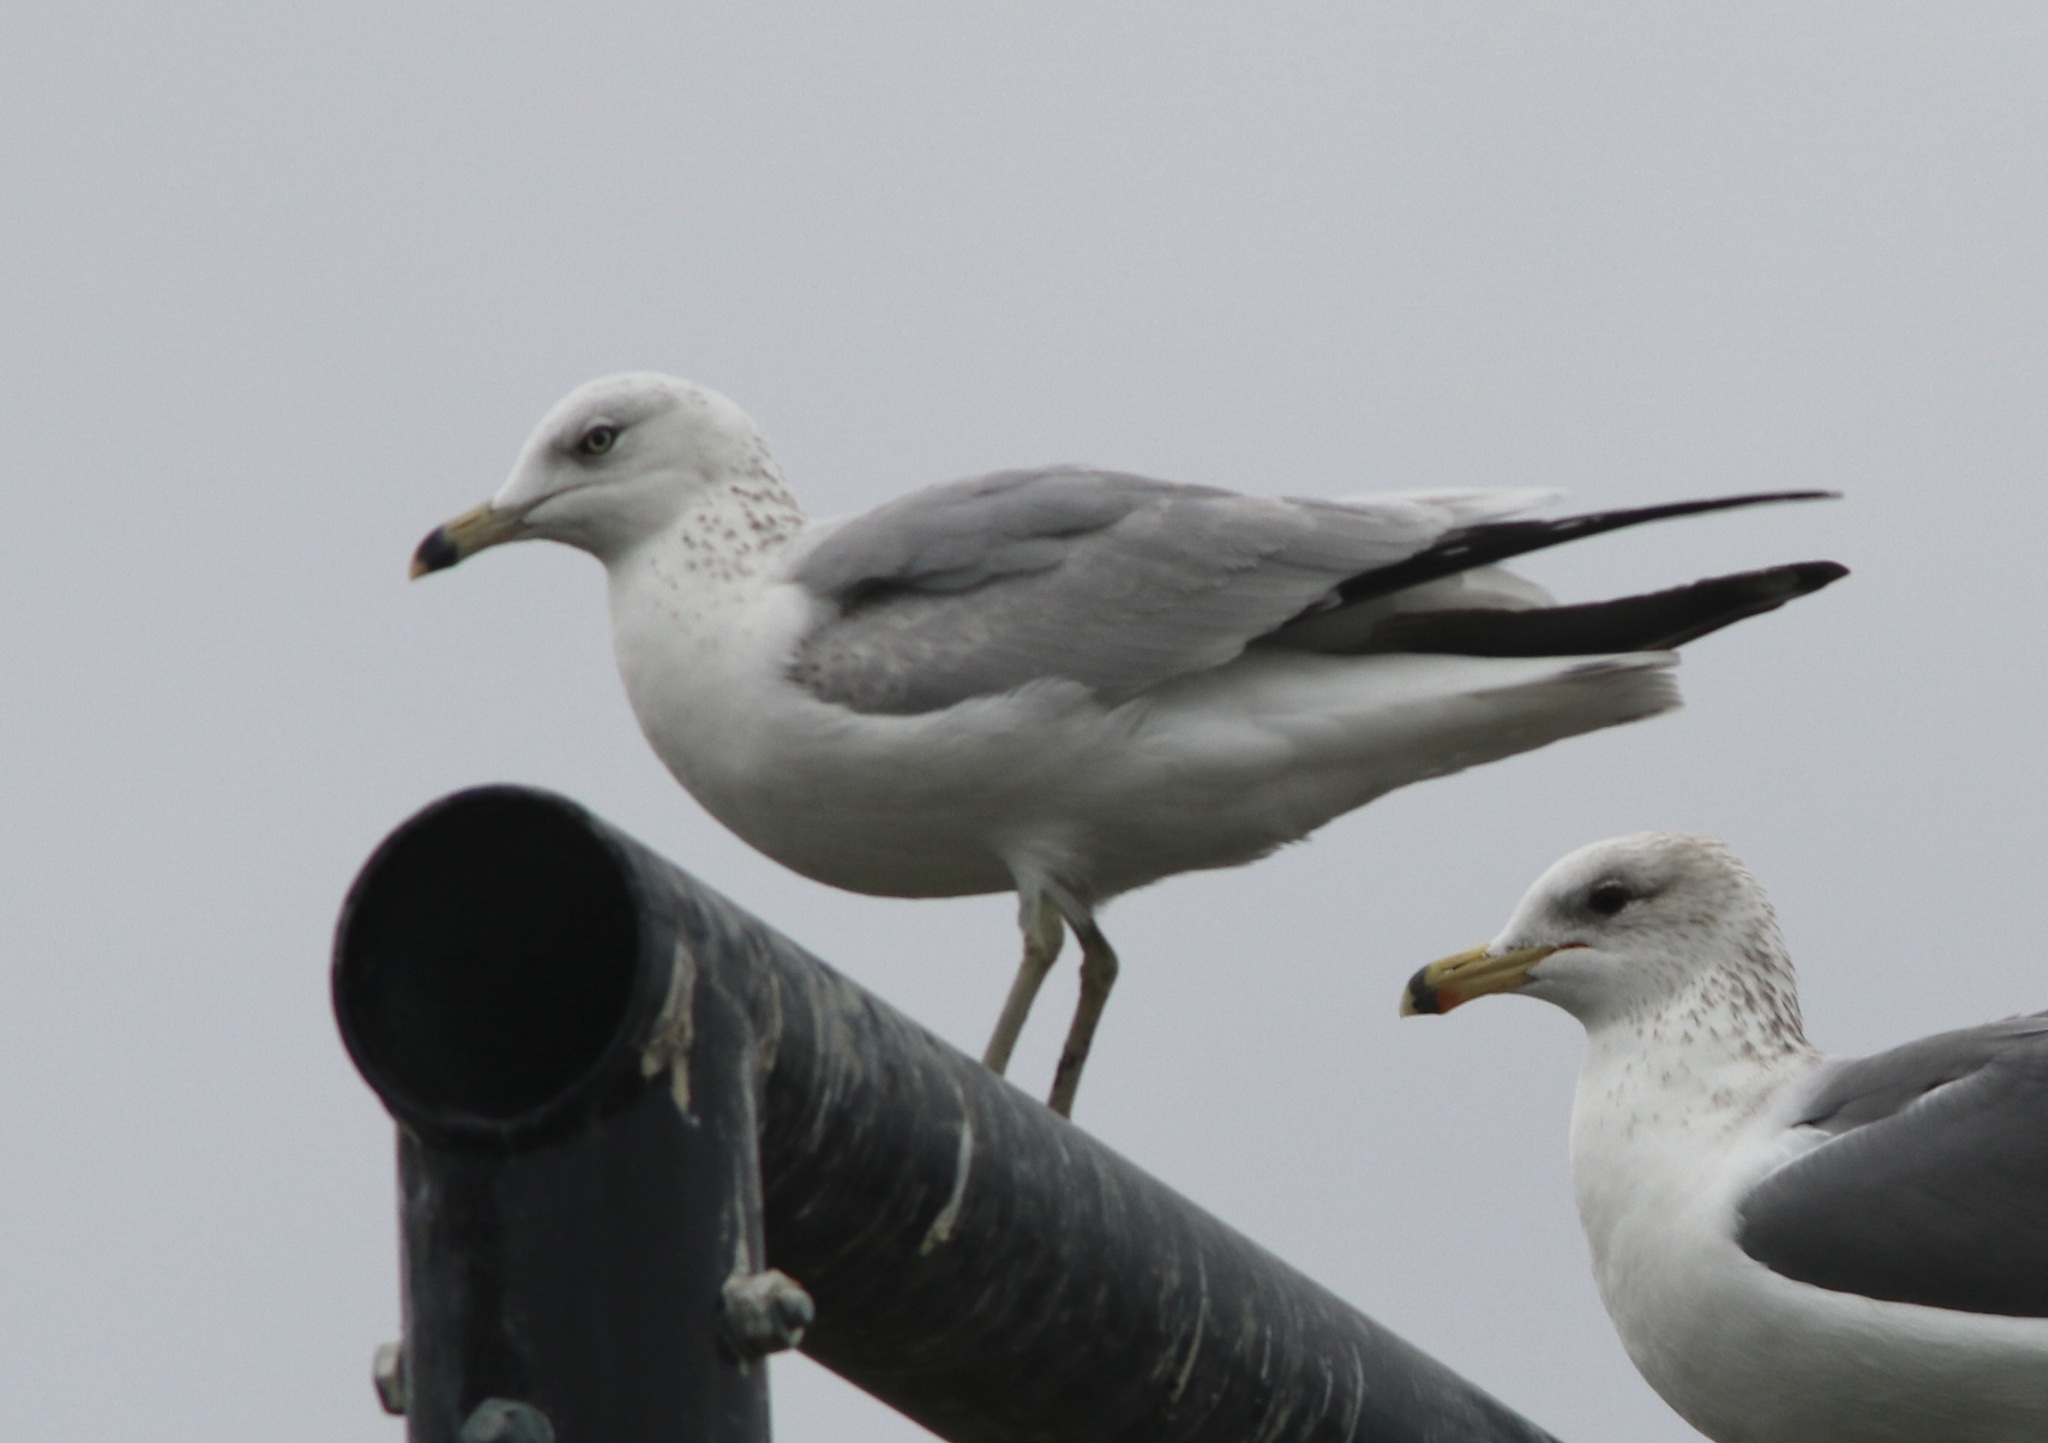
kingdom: Animalia
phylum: Chordata
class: Aves
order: Charadriiformes
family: Laridae
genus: Larus
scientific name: Larus delawarensis
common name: Ring-billed gull
